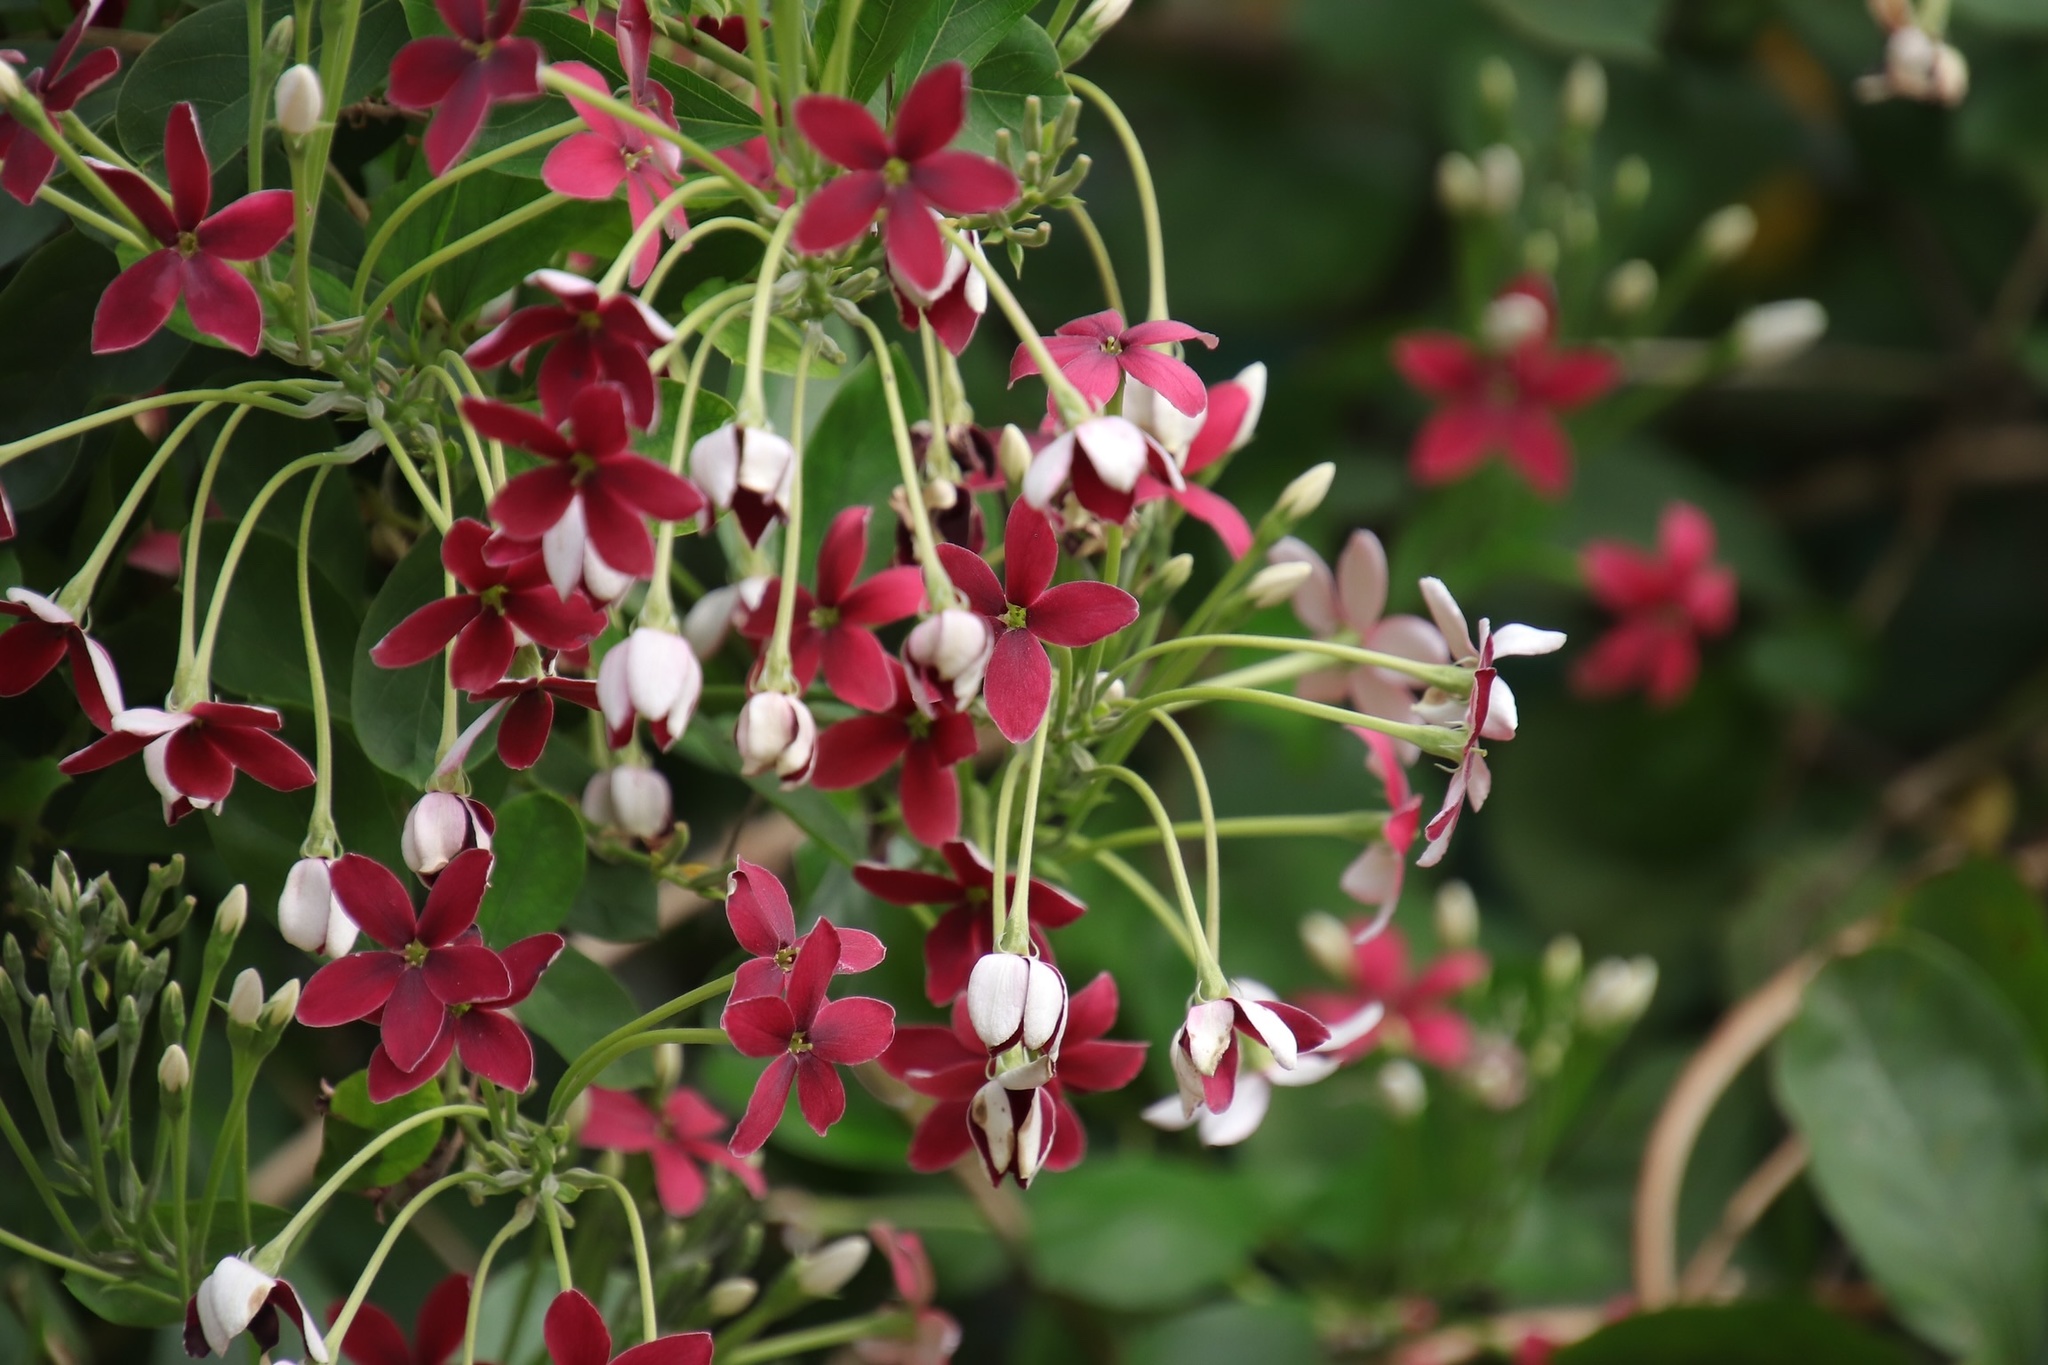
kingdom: Plantae
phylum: Tracheophyta
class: Magnoliopsida
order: Myrtales
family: Combretaceae
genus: Combretum
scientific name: Combretum indicum
